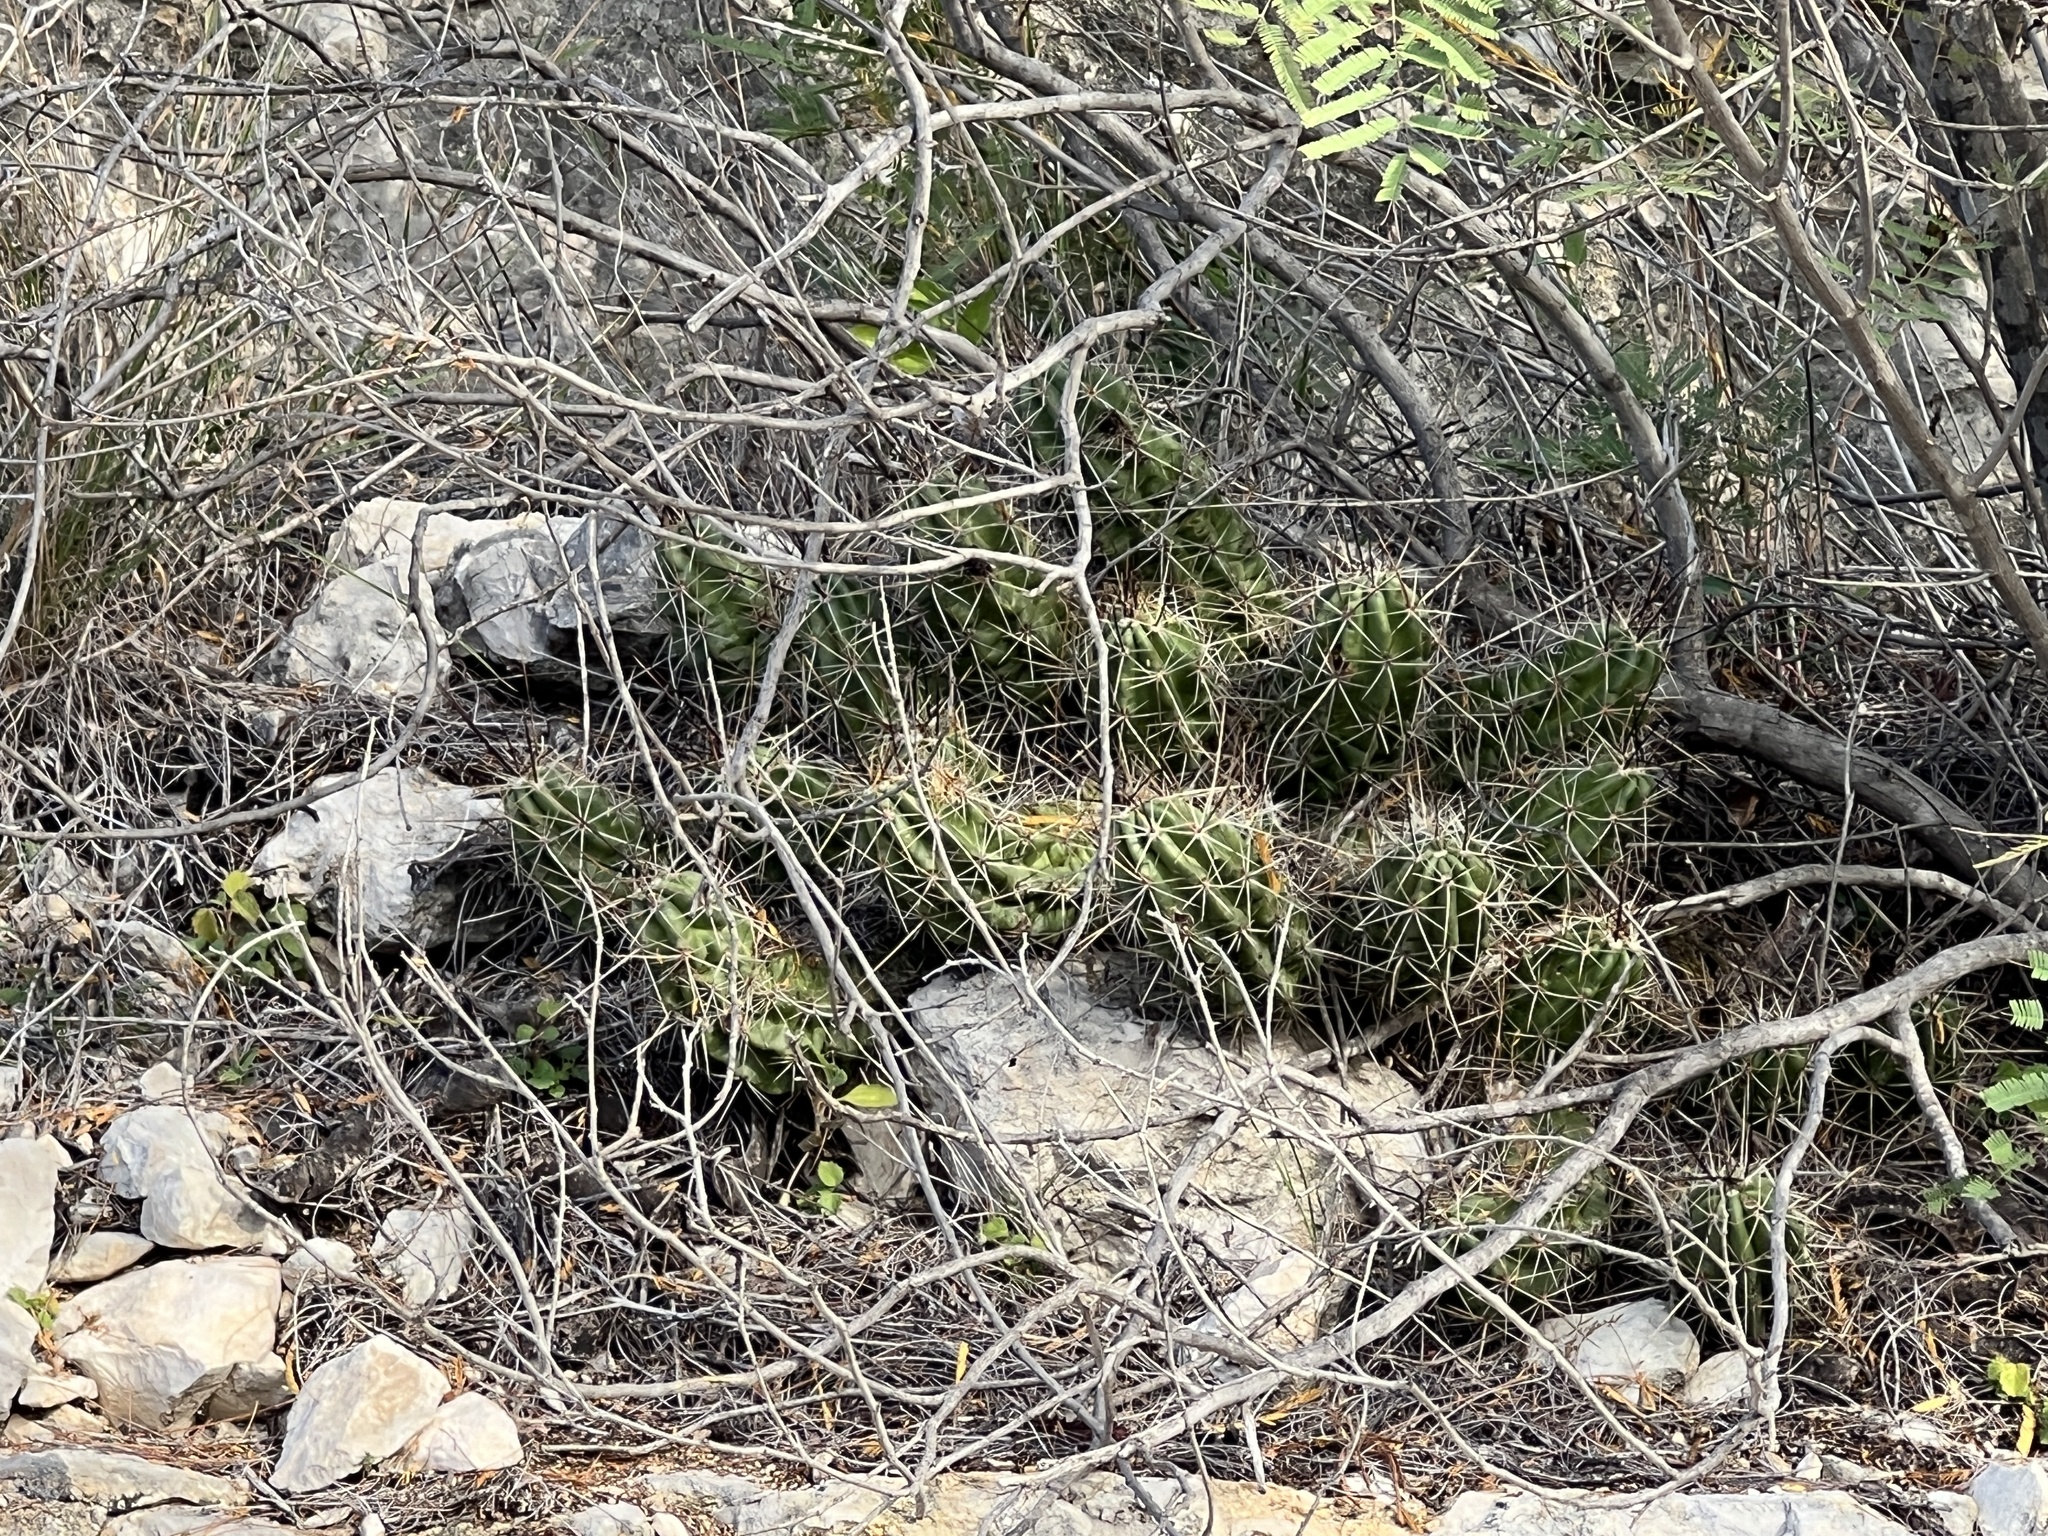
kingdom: Plantae
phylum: Tracheophyta
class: Magnoliopsida
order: Caryophyllales
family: Cactaceae
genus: Echinocereus
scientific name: Echinocereus enneacanthus
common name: Pitaya
